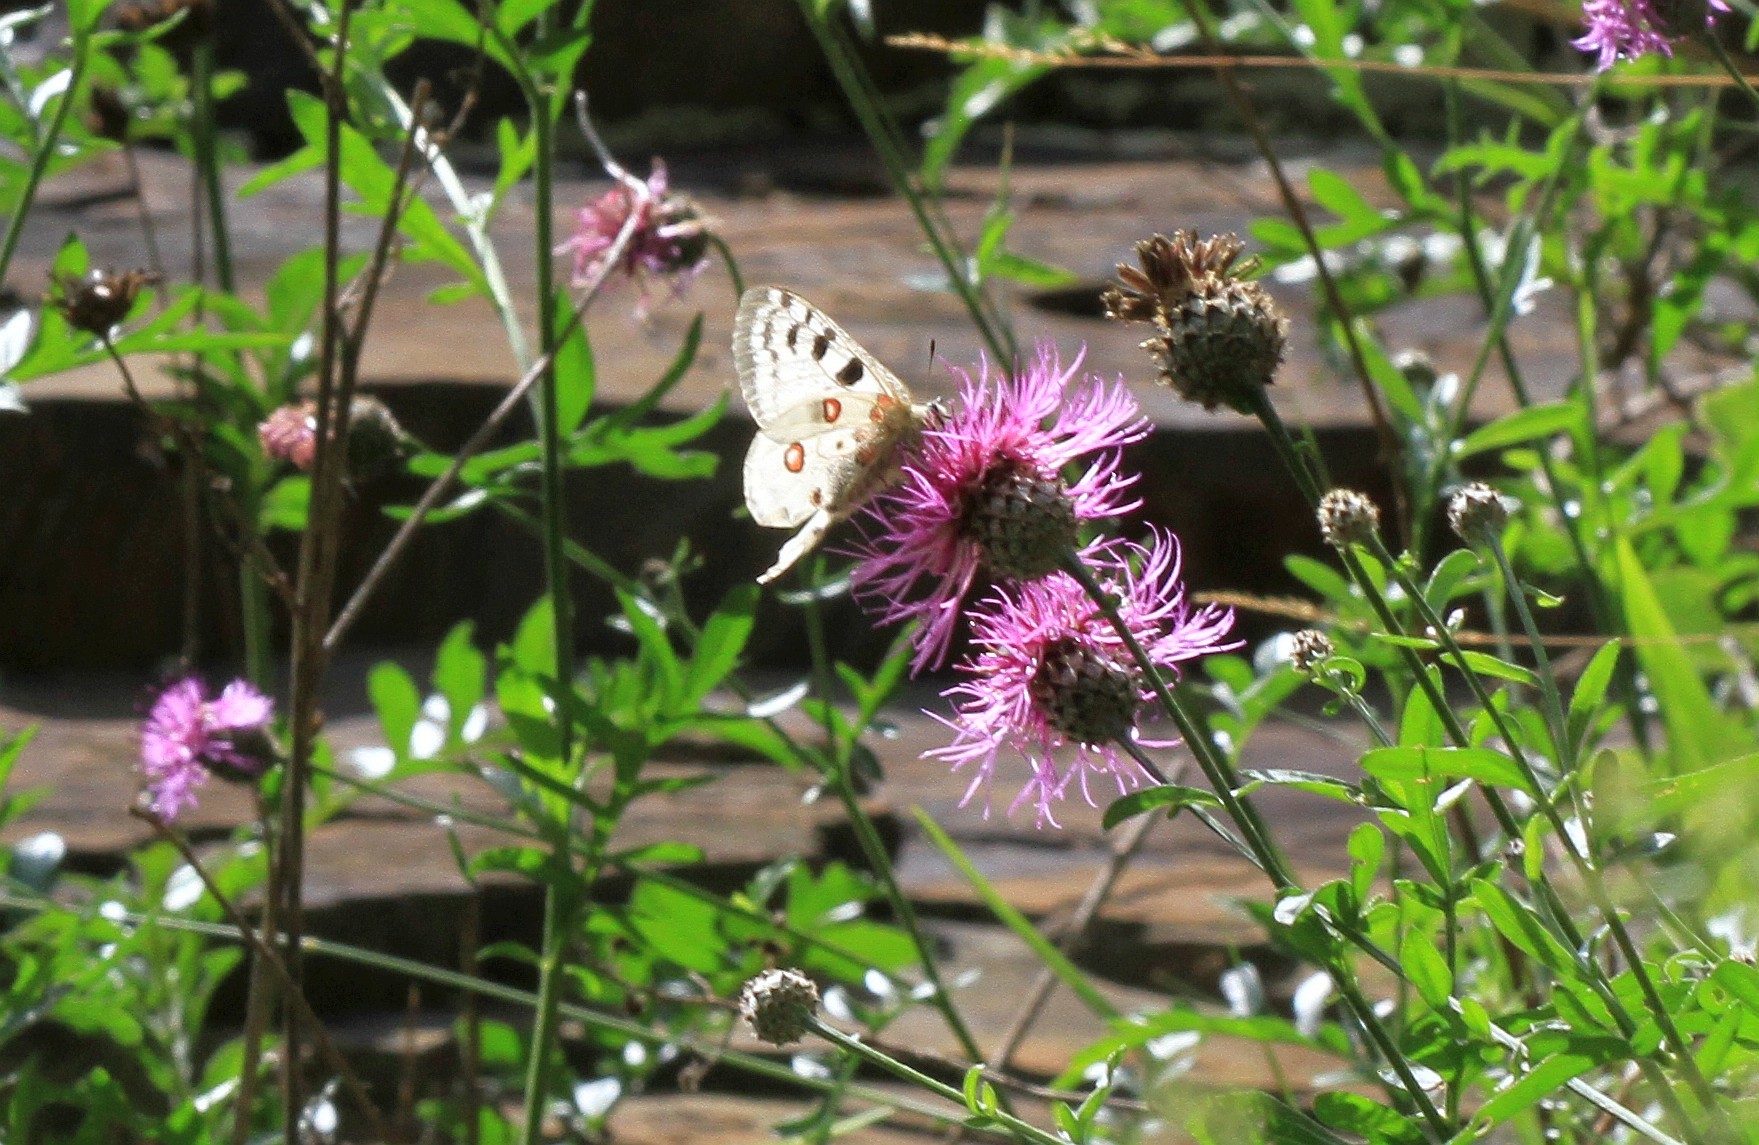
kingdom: Animalia
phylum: Arthropoda
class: Insecta
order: Lepidoptera
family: Papilionidae
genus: Parnassius
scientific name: Parnassius apollo
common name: Apollo
